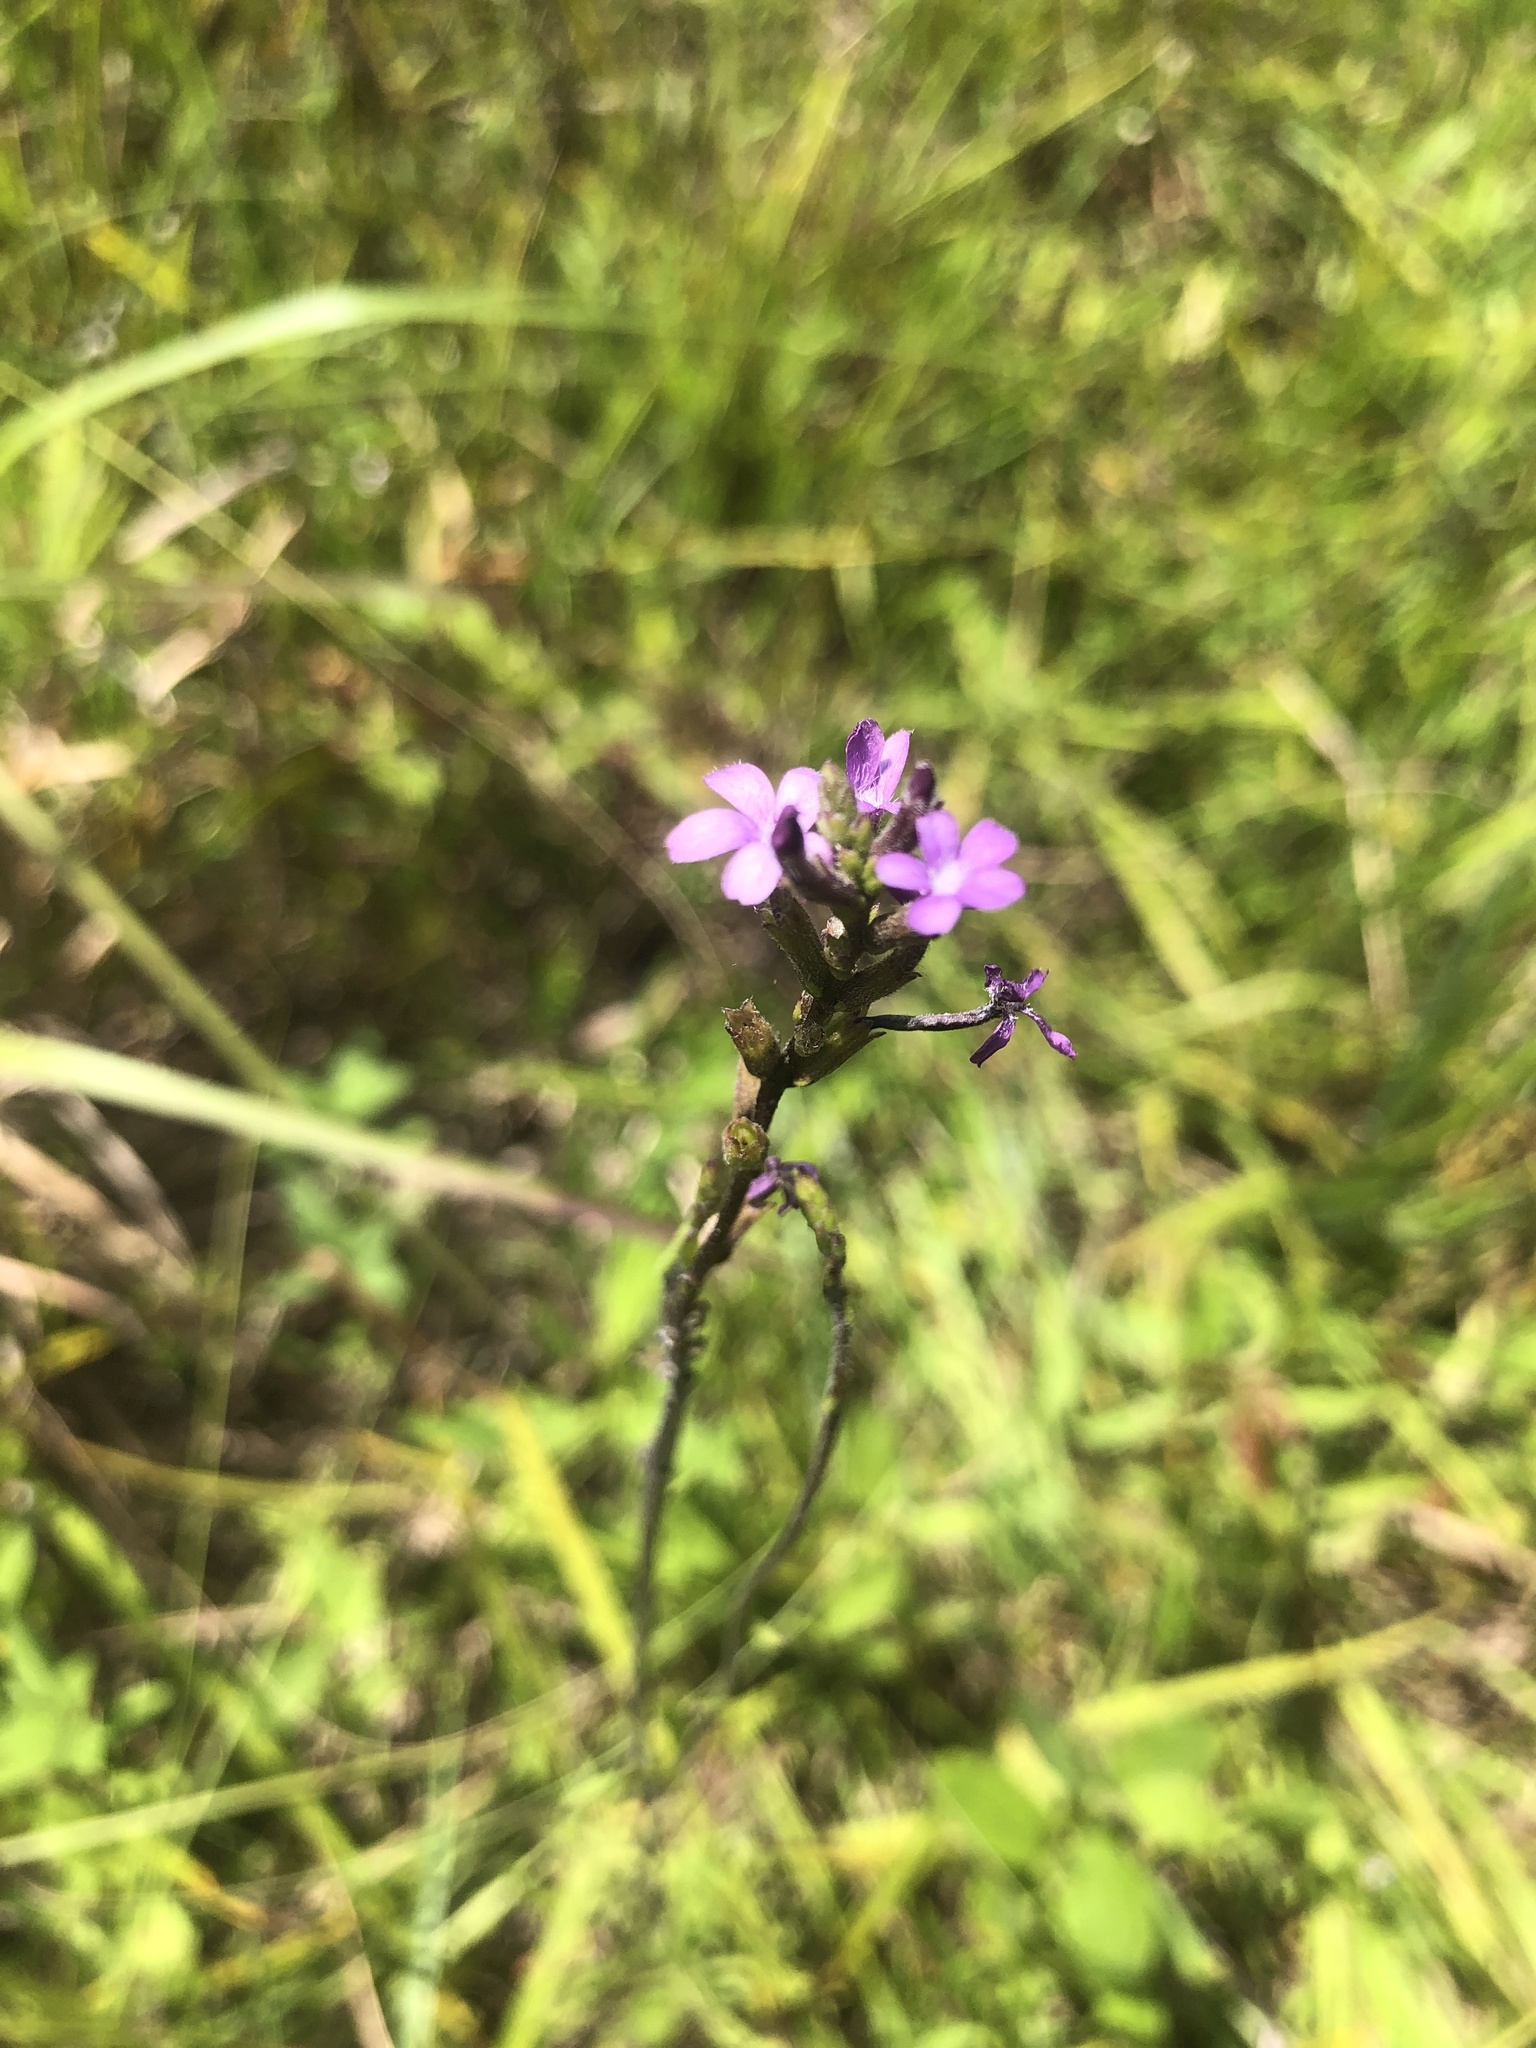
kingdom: Plantae
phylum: Tracheophyta
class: Magnoliopsida
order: Lamiales
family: Orobanchaceae
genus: Buchnera
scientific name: Buchnera floridana
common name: Florida bluehearts
